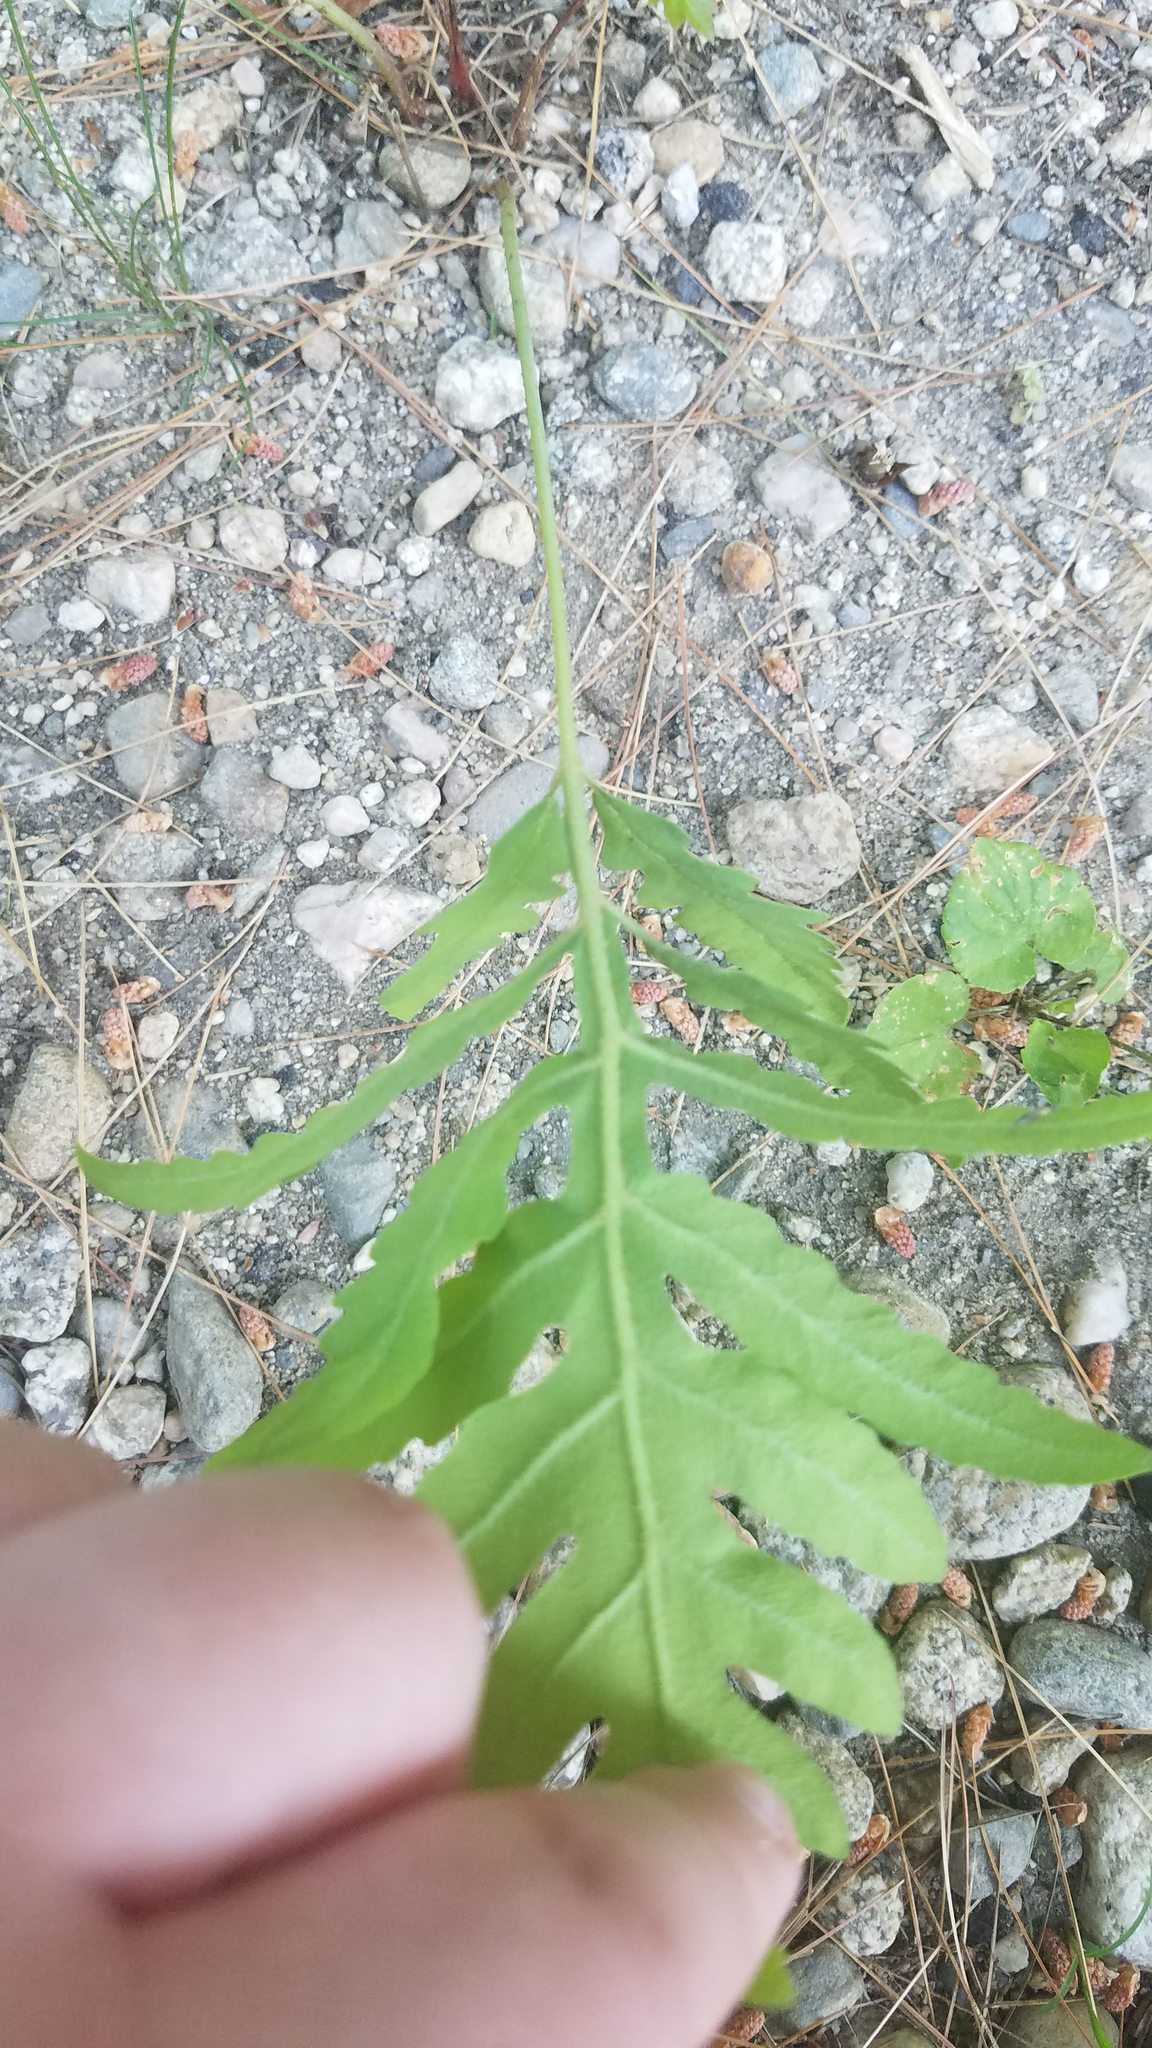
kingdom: Plantae
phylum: Tracheophyta
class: Polypodiopsida
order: Polypodiales
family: Onocleaceae
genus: Onoclea
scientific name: Onoclea sensibilis
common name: Sensitive fern
